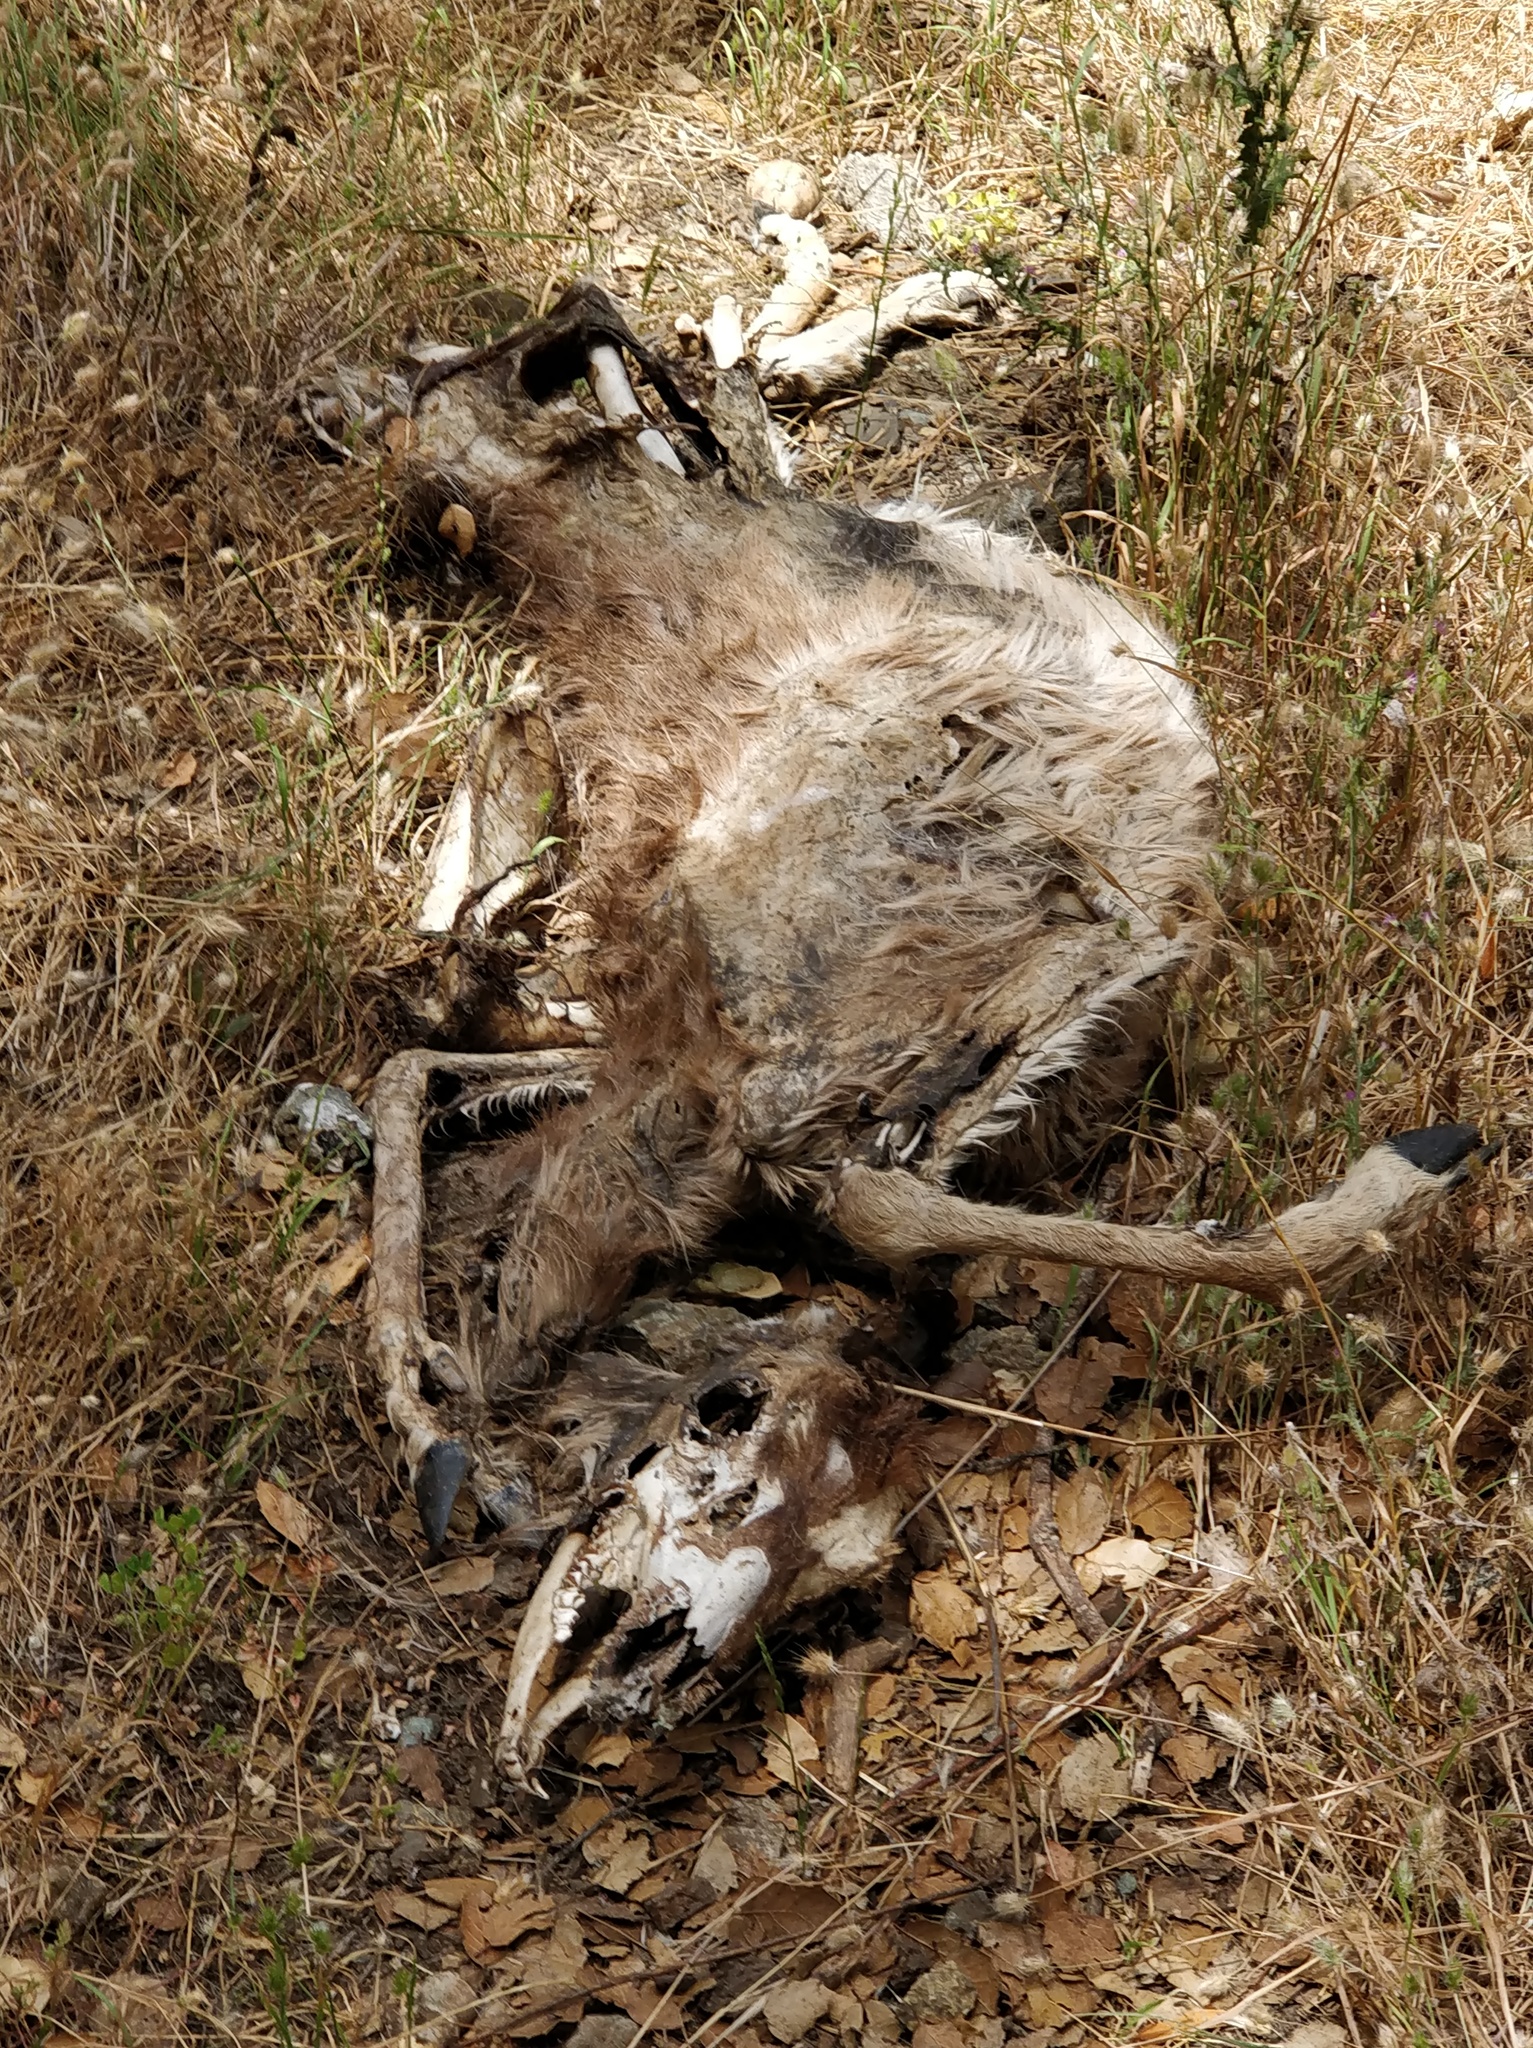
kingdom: Animalia
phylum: Chordata
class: Mammalia
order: Artiodactyla
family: Cervidae
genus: Odocoileus
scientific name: Odocoileus hemionus
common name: Mule deer
